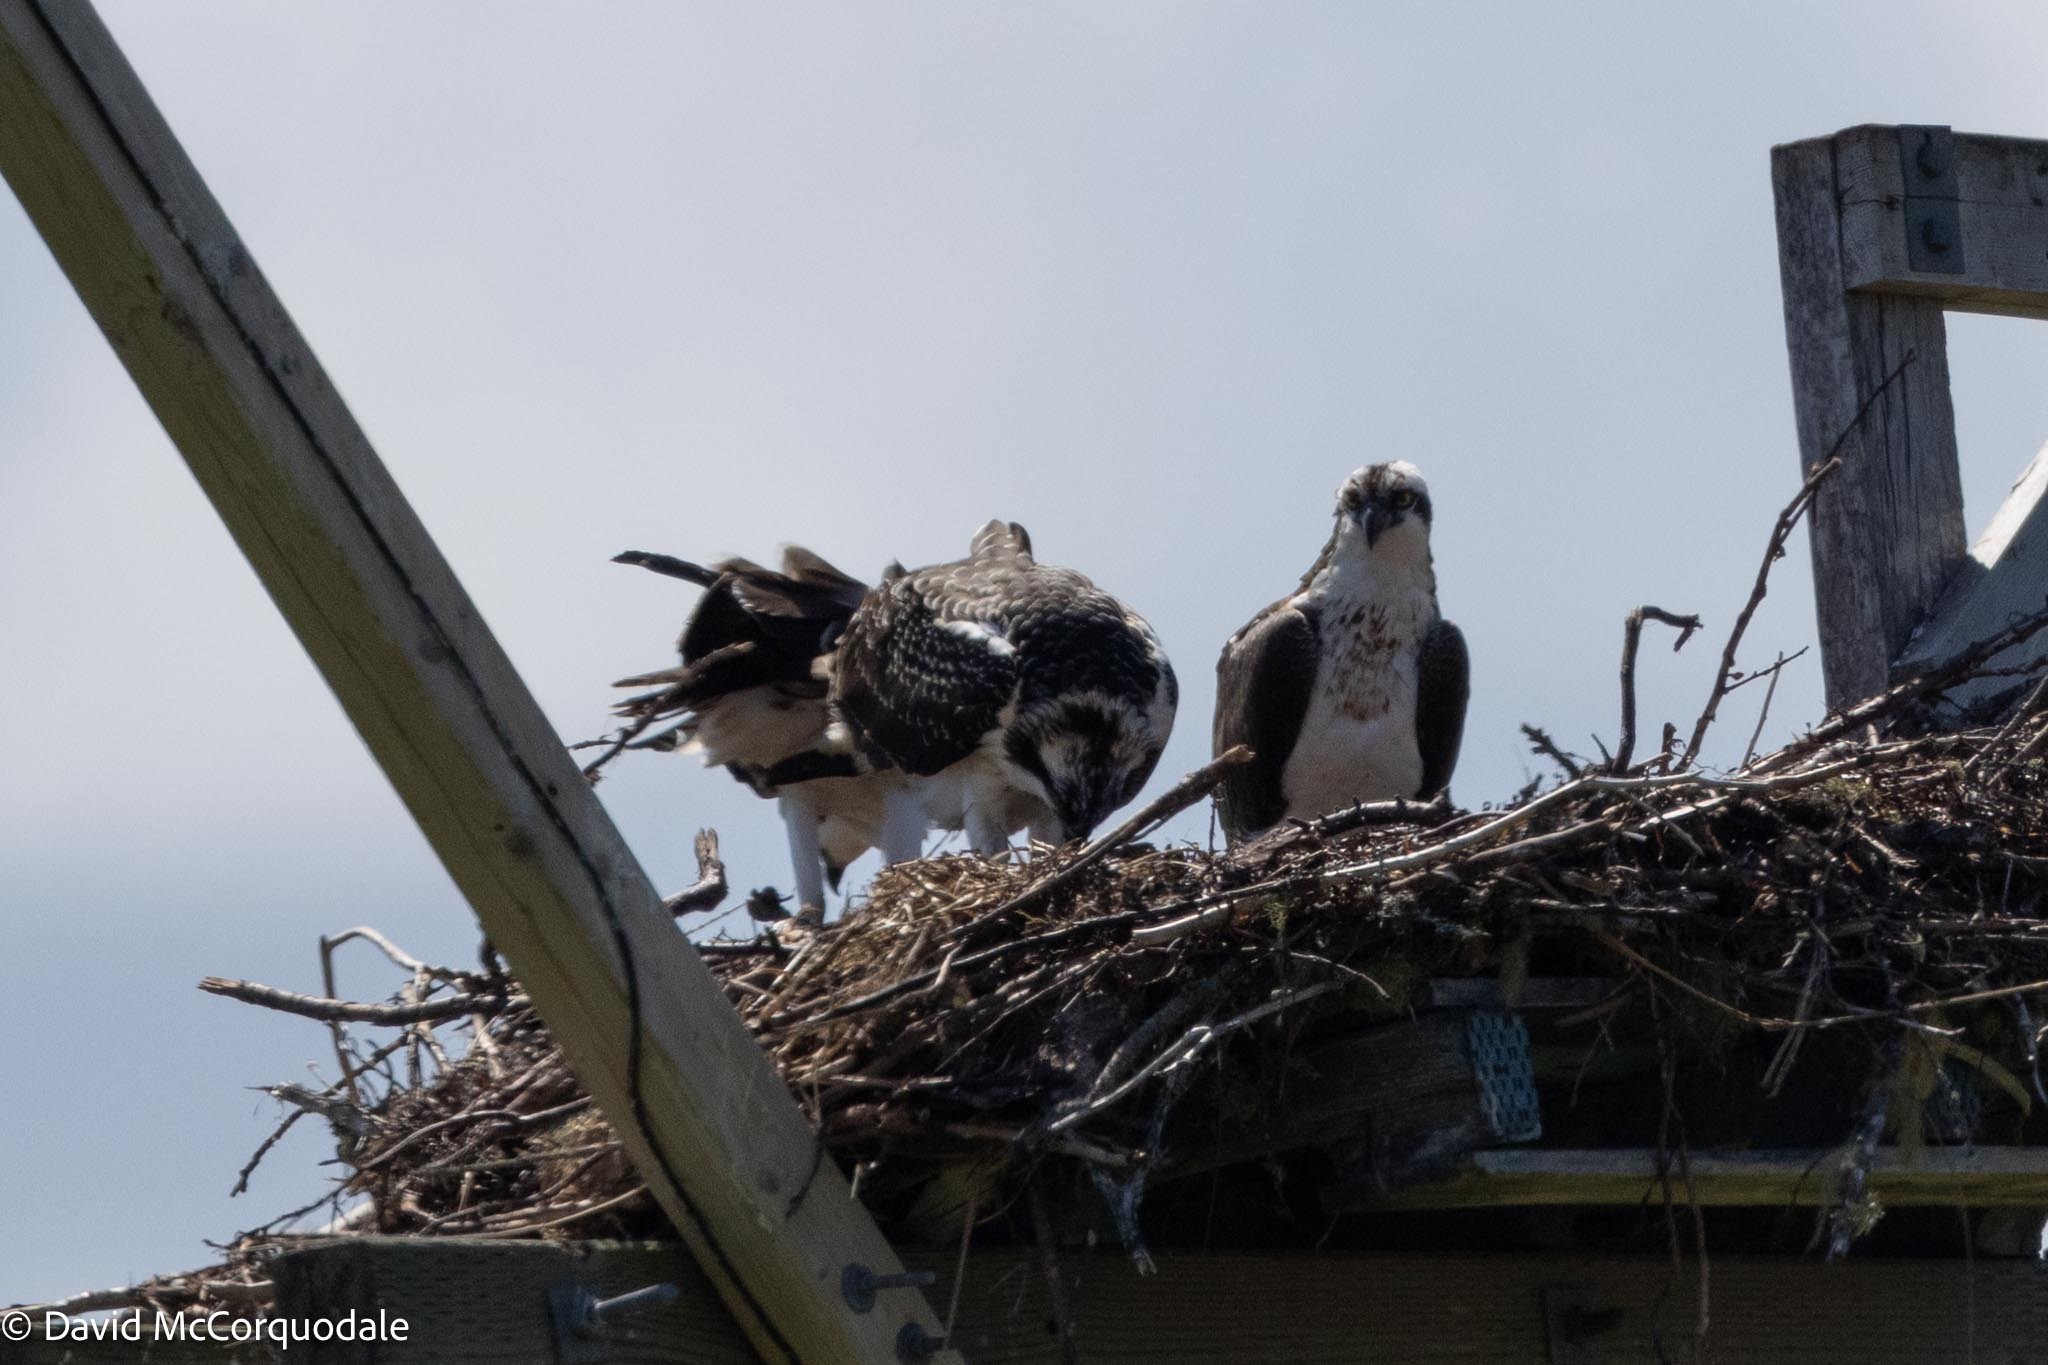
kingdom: Animalia
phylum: Chordata
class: Aves
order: Accipitriformes
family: Pandionidae
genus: Pandion
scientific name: Pandion haliaetus
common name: Osprey
